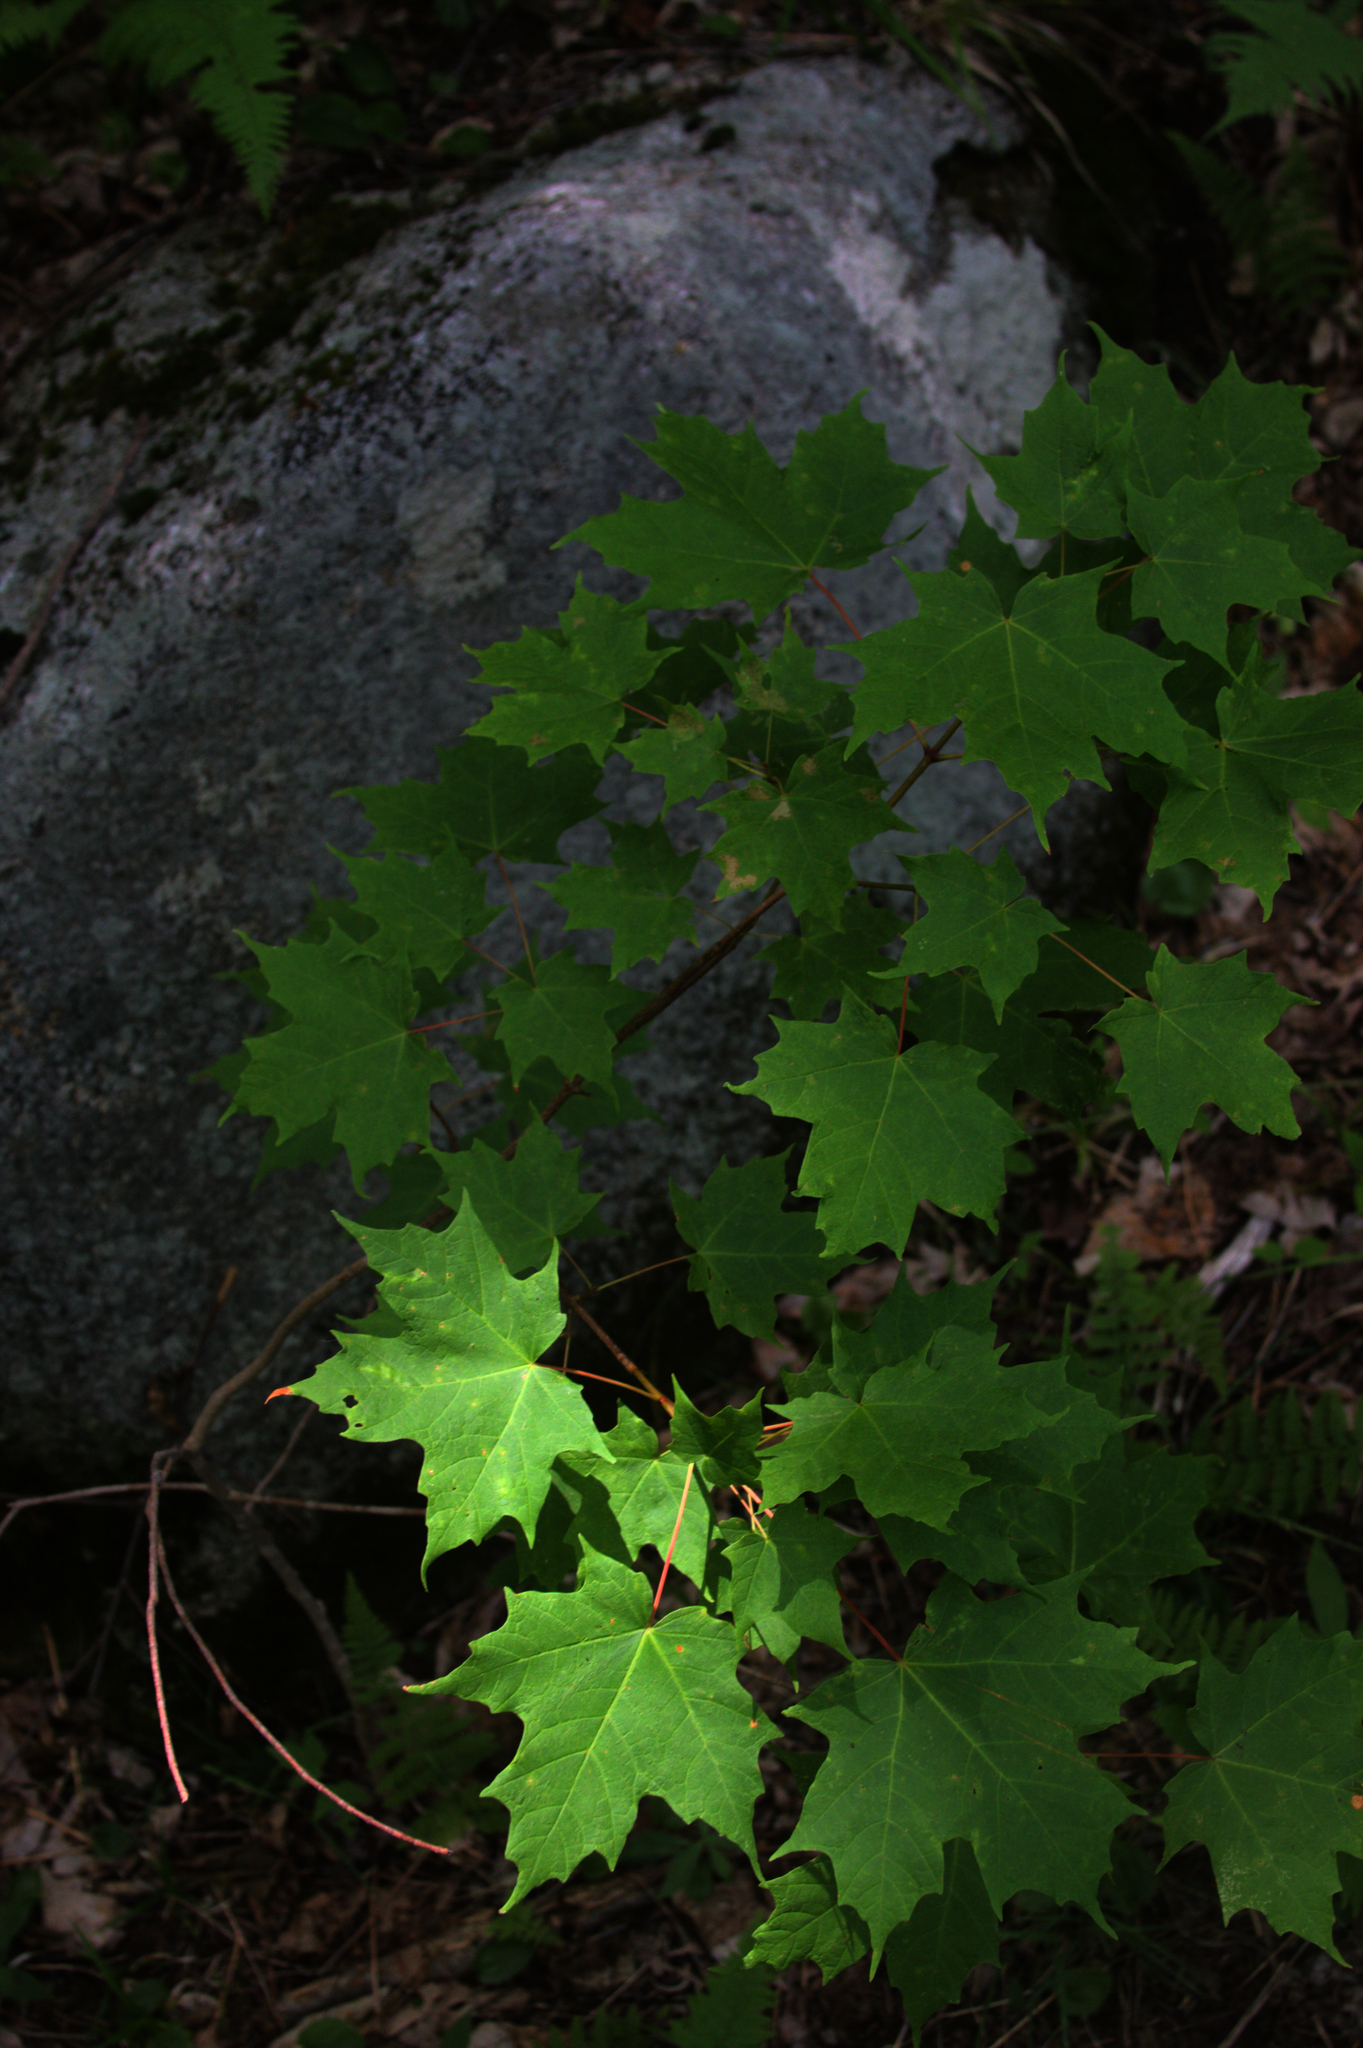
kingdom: Plantae
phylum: Tracheophyta
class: Magnoliopsida
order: Sapindales
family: Sapindaceae
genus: Acer
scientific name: Acer saccharum
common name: Sugar maple
